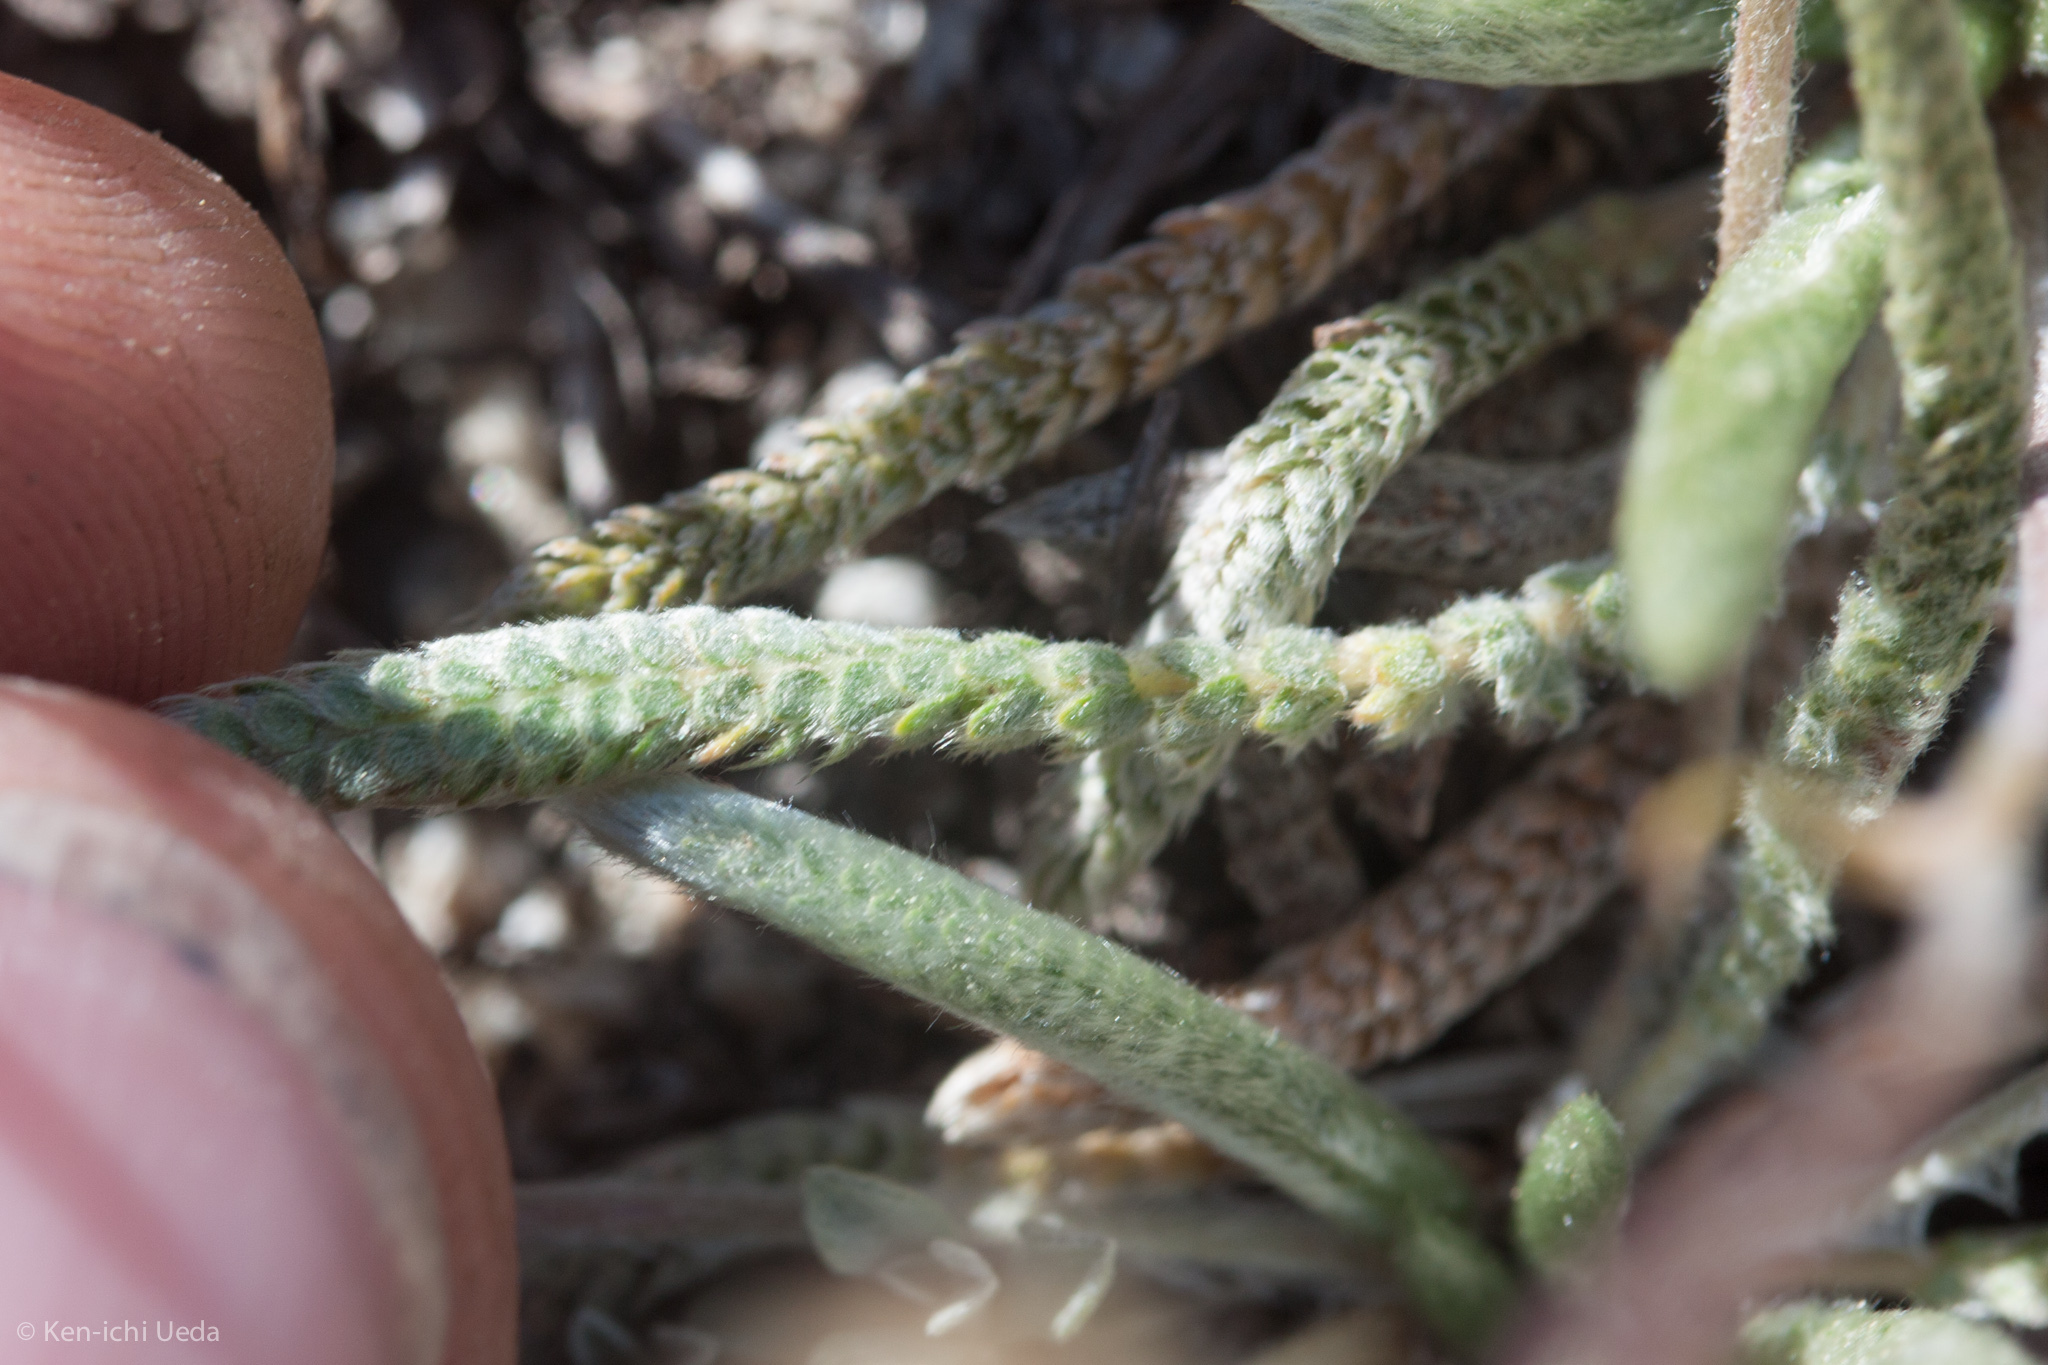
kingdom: Plantae
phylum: Tracheophyta
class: Magnoliopsida
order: Rosales
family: Rosaceae
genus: Potentilla
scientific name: Potentilla muirii
